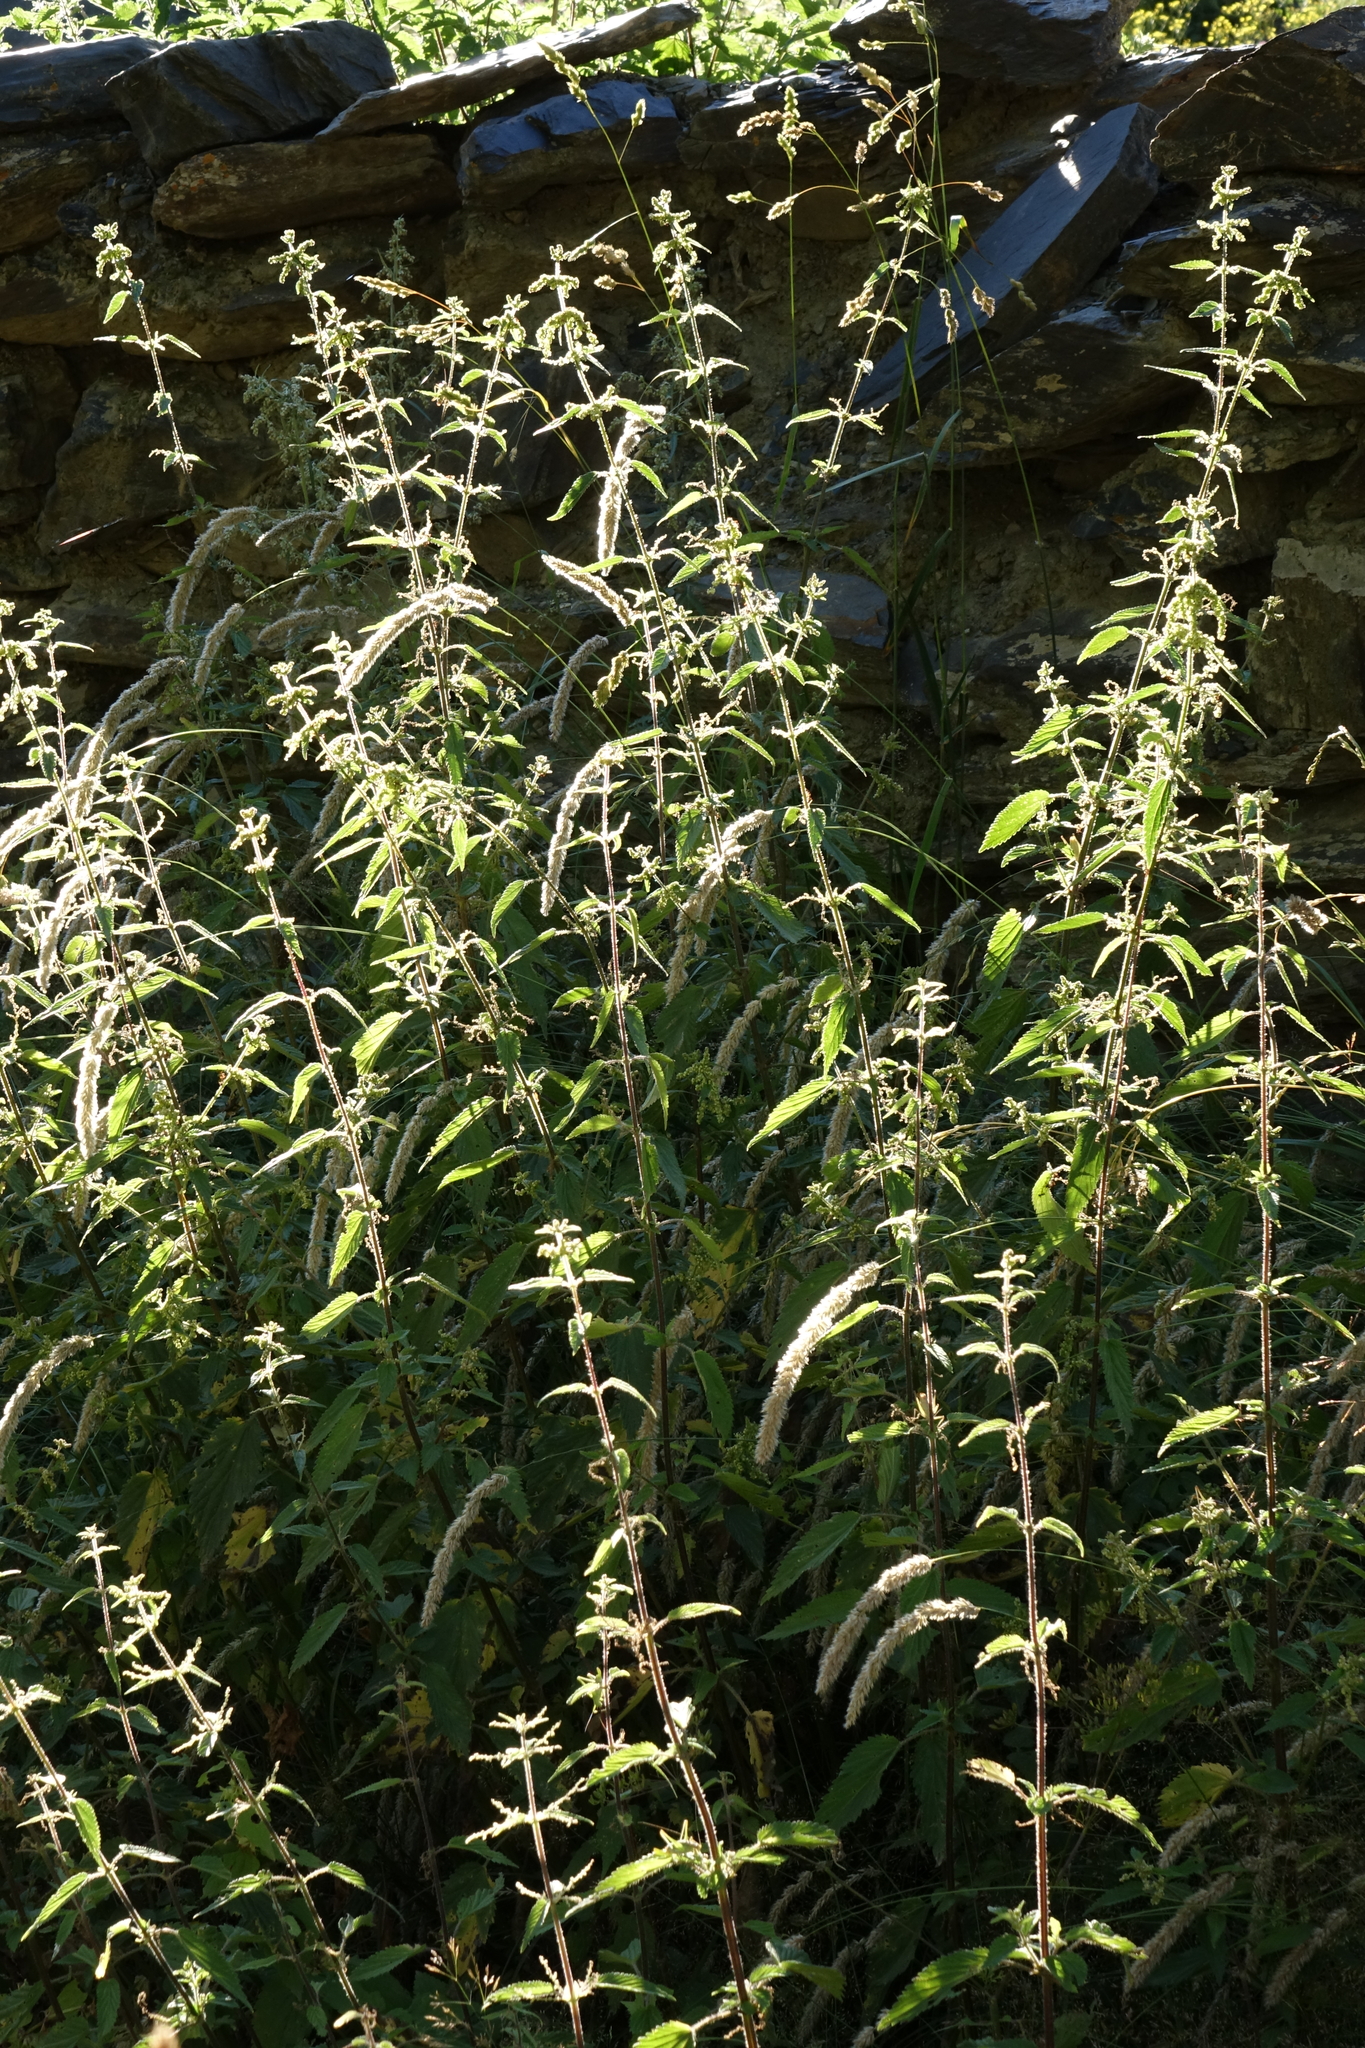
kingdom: Plantae
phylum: Tracheophyta
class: Magnoliopsida
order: Rosales
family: Urticaceae
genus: Urtica
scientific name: Urtica dioica
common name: Common nettle
